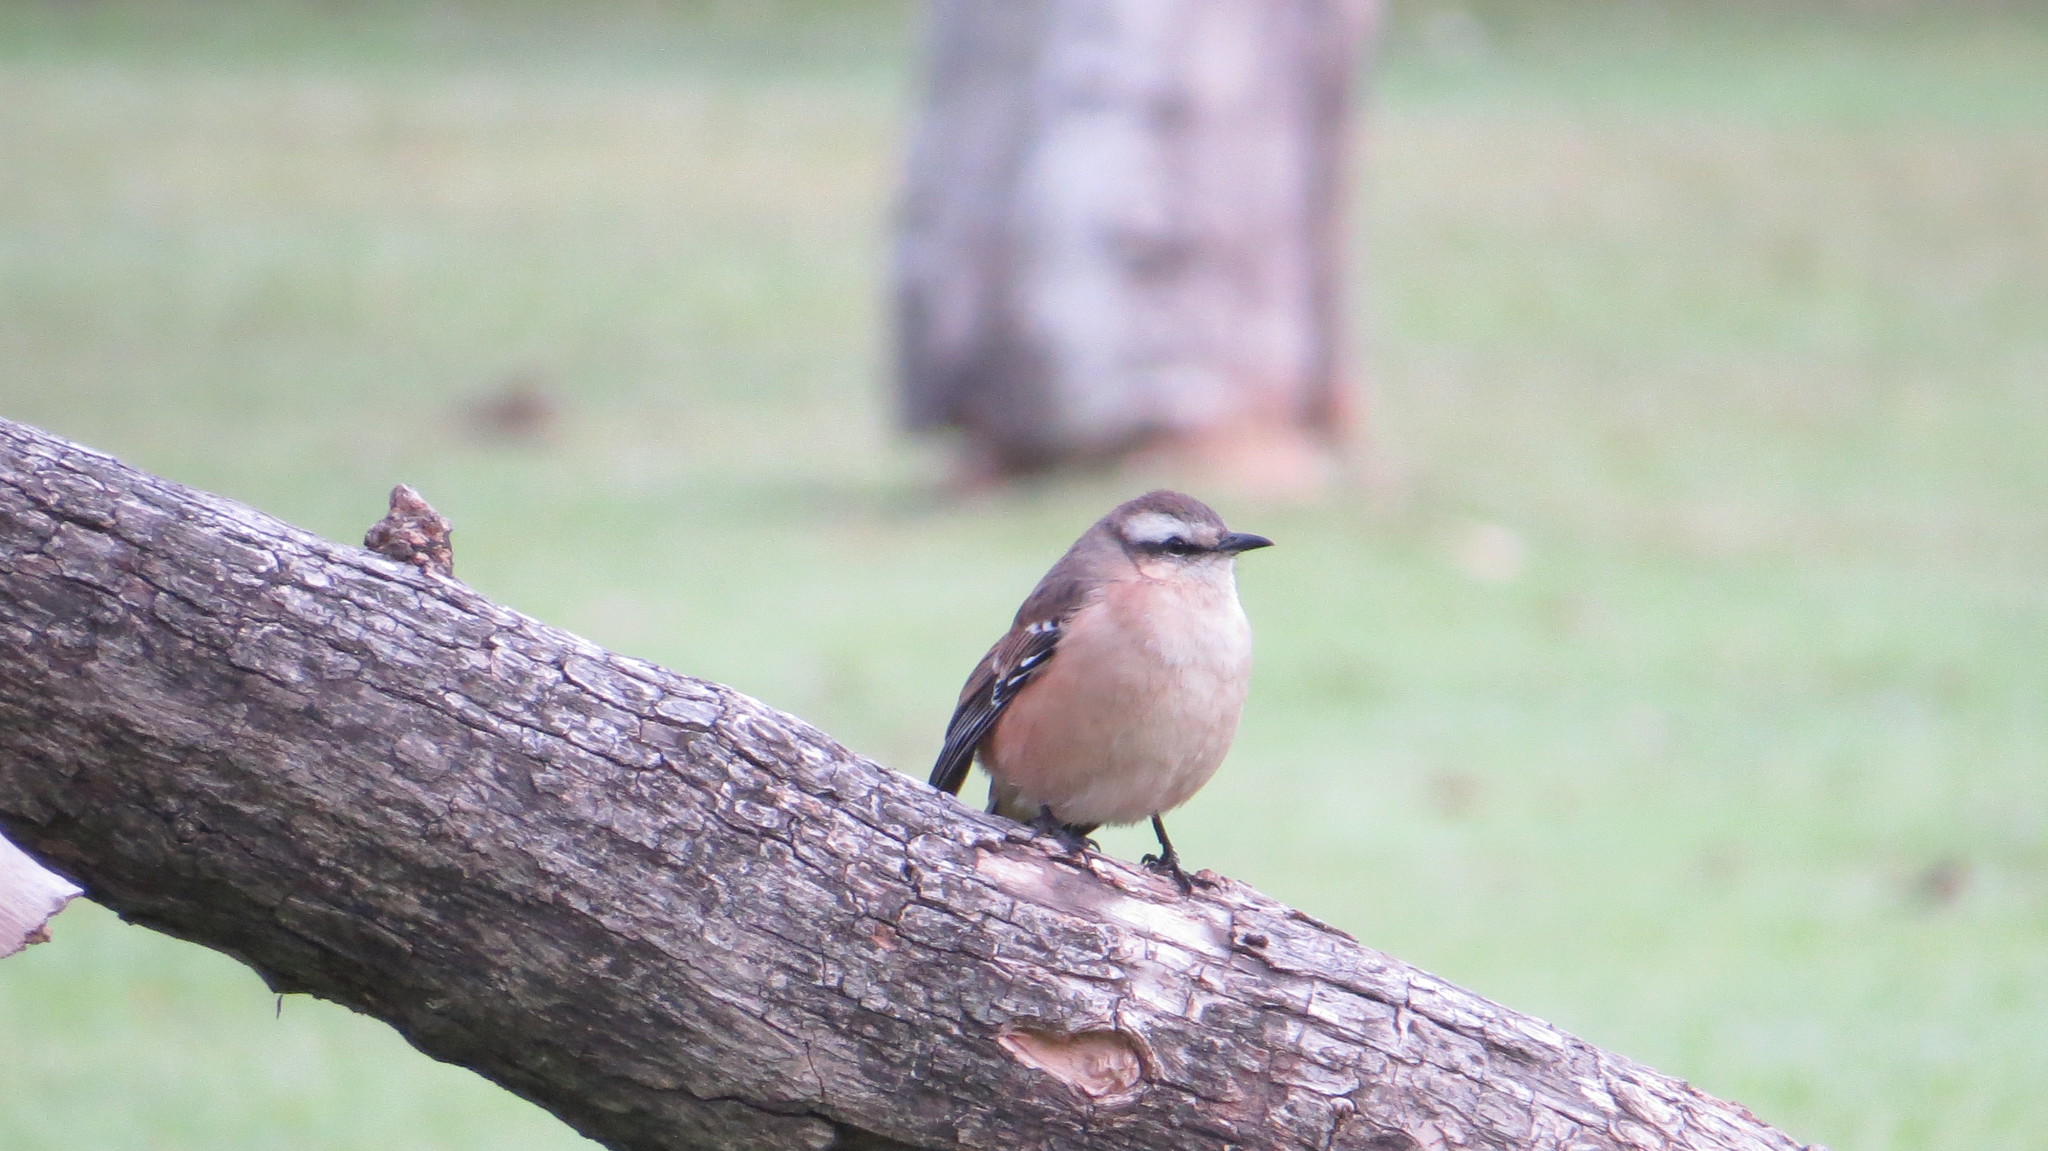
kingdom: Animalia
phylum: Chordata
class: Aves
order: Passeriformes
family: Mimidae
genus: Mimus
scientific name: Mimus saturninus
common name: Chalk-browed mockingbird
